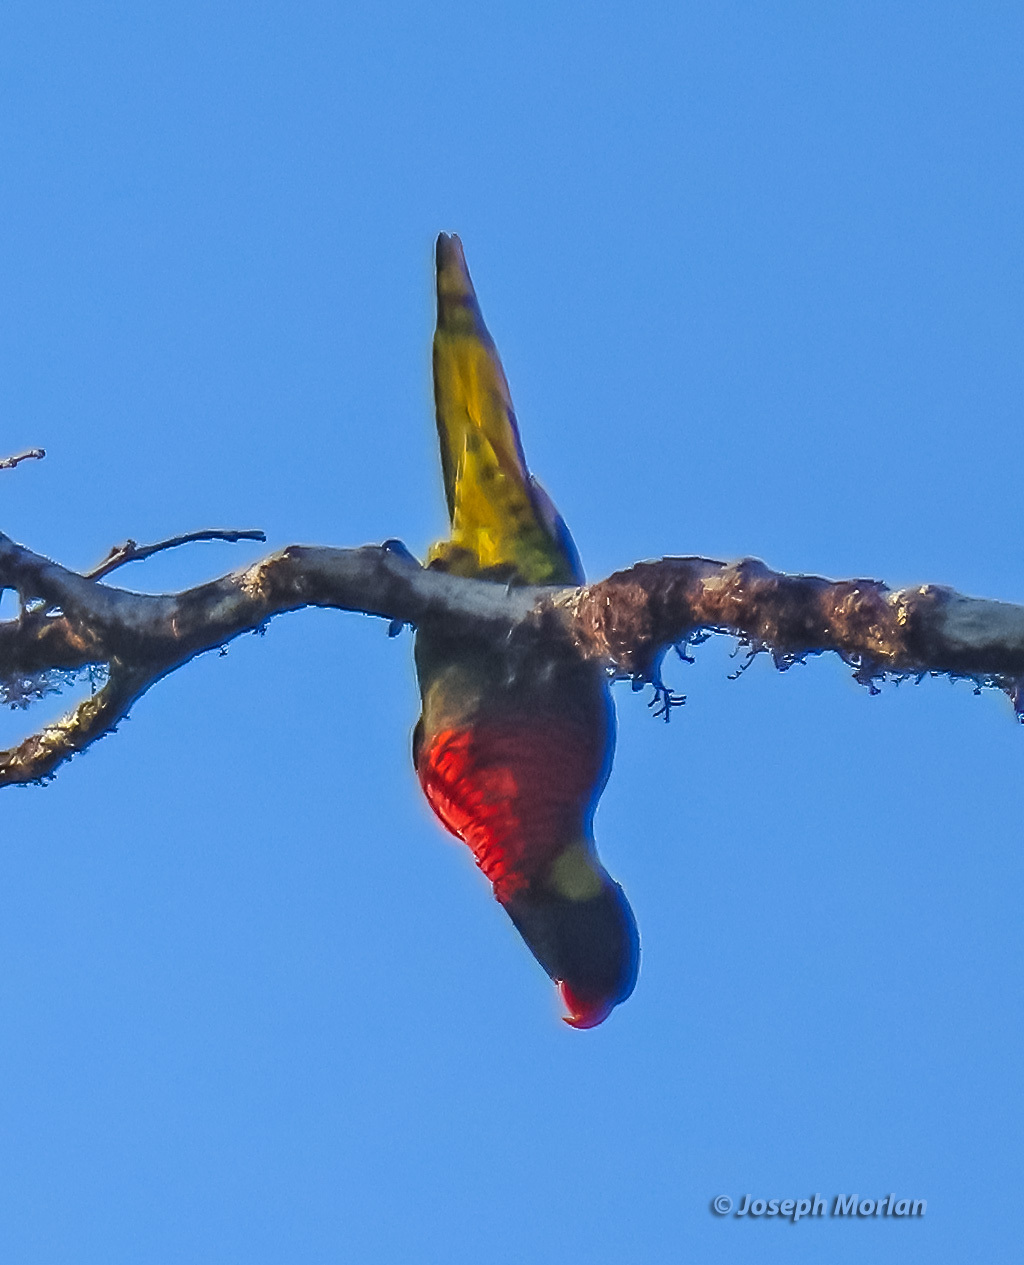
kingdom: Animalia
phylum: Chordata
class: Aves
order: Psittaciformes
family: Psittacidae
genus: Trichoglossus
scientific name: Trichoglossus haematodus
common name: Coconut lorikeet
